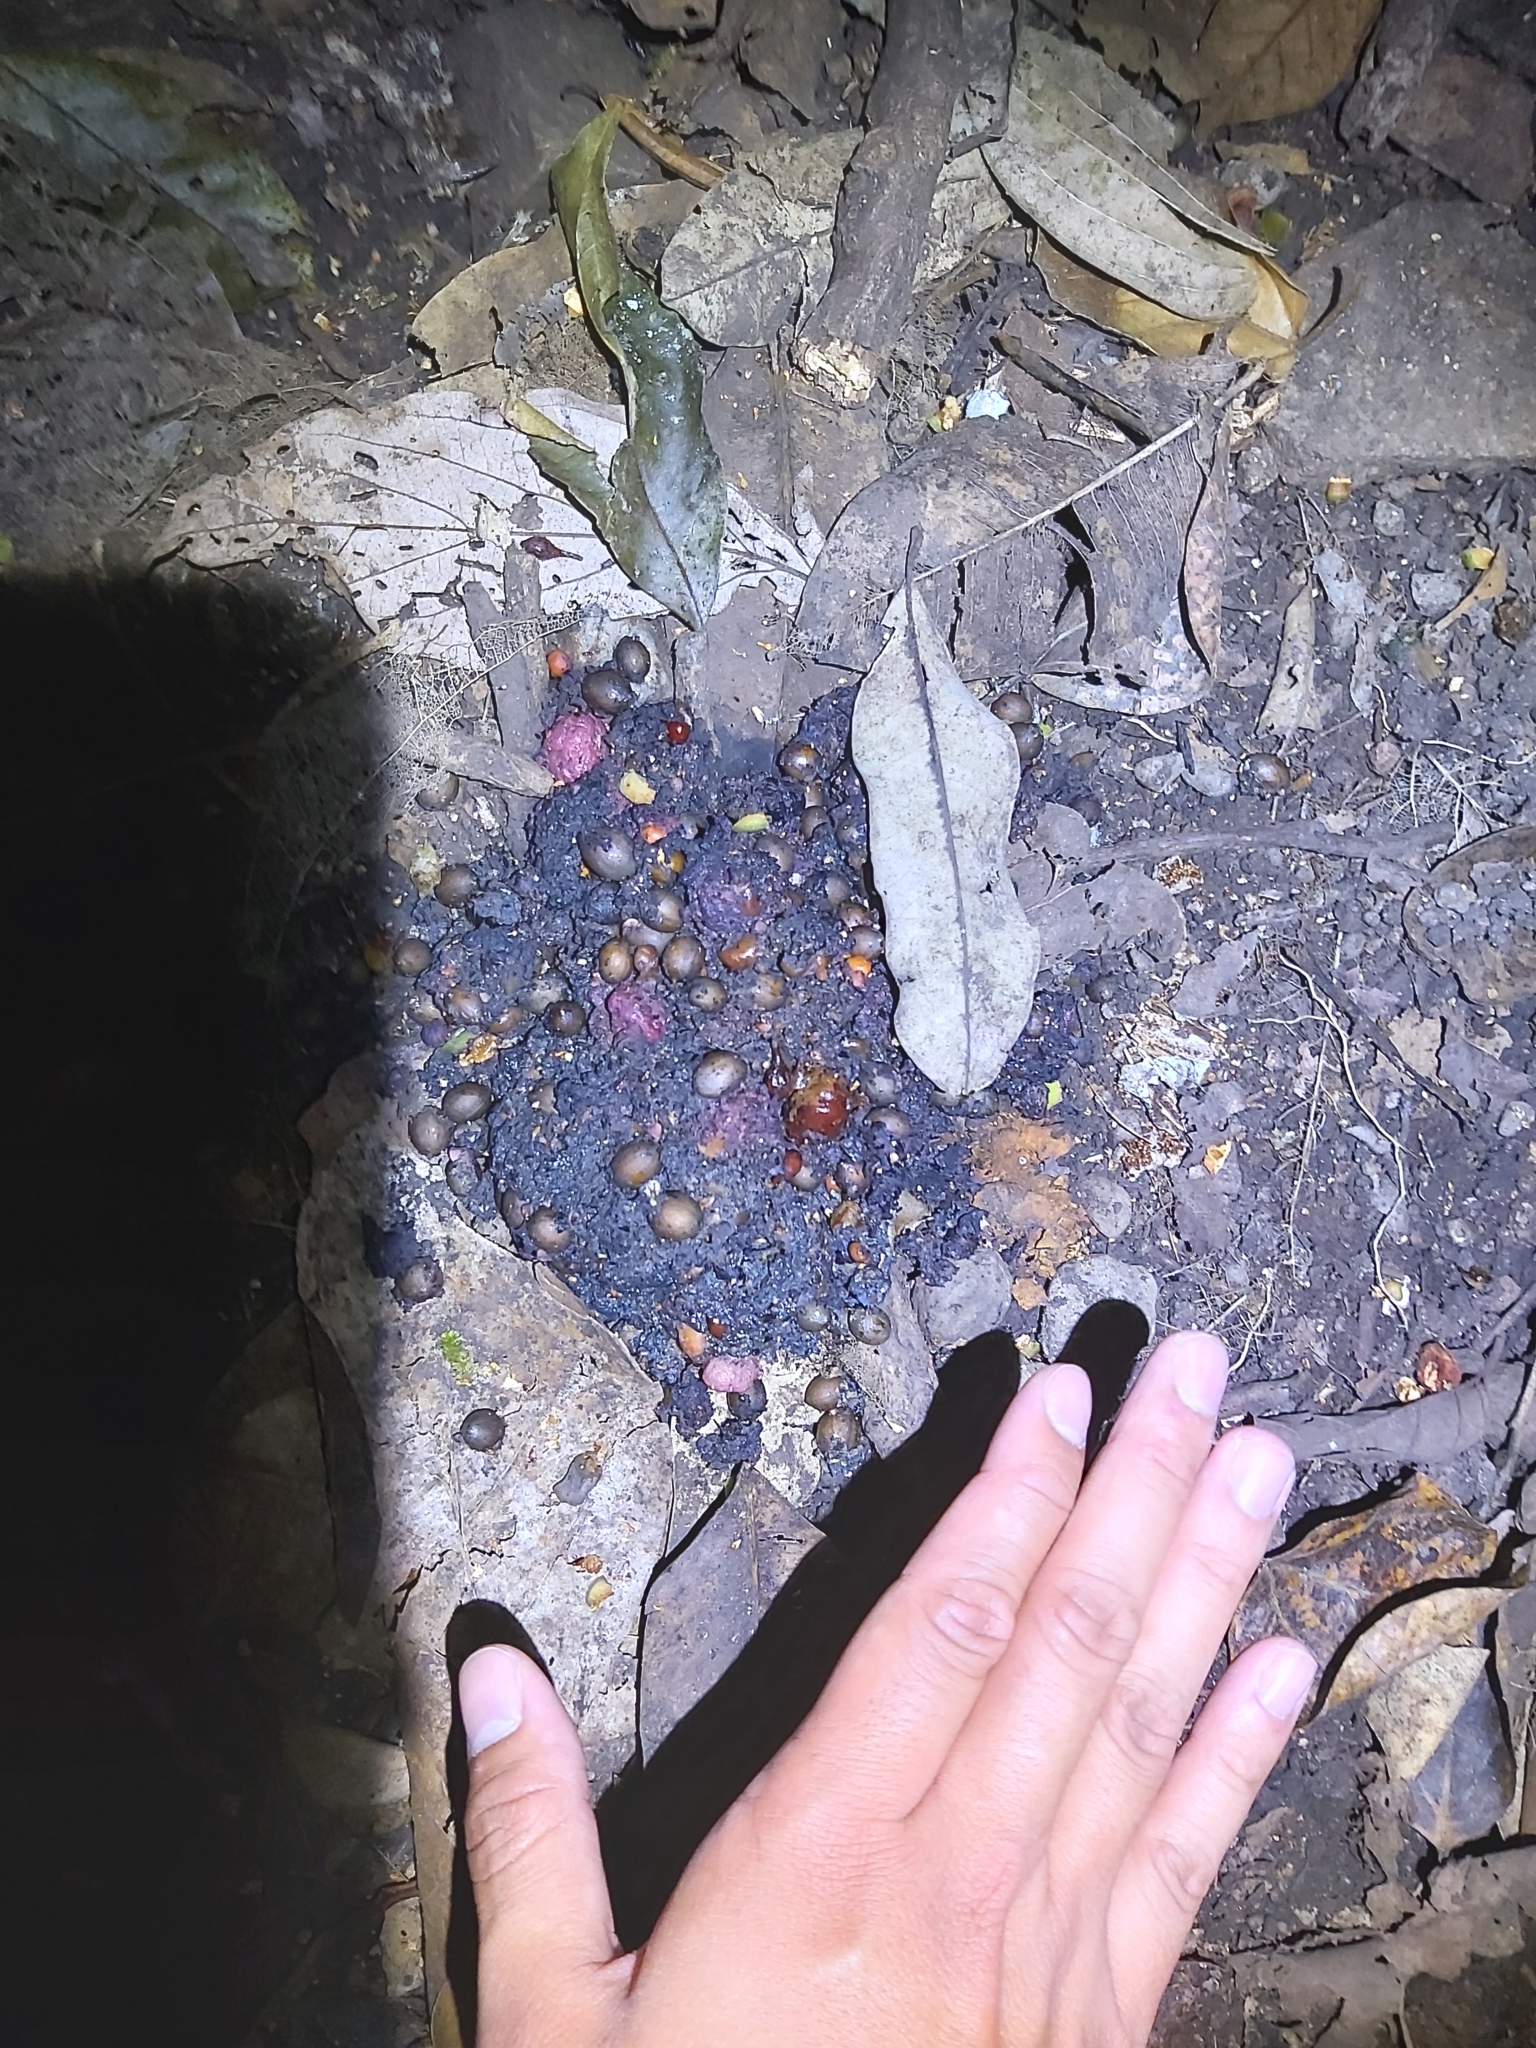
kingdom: Animalia
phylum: Chordata
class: Aves
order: Casuariiformes
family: Casuariidae
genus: Casuarius
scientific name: Casuarius casuarius
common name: Southern cassowary
